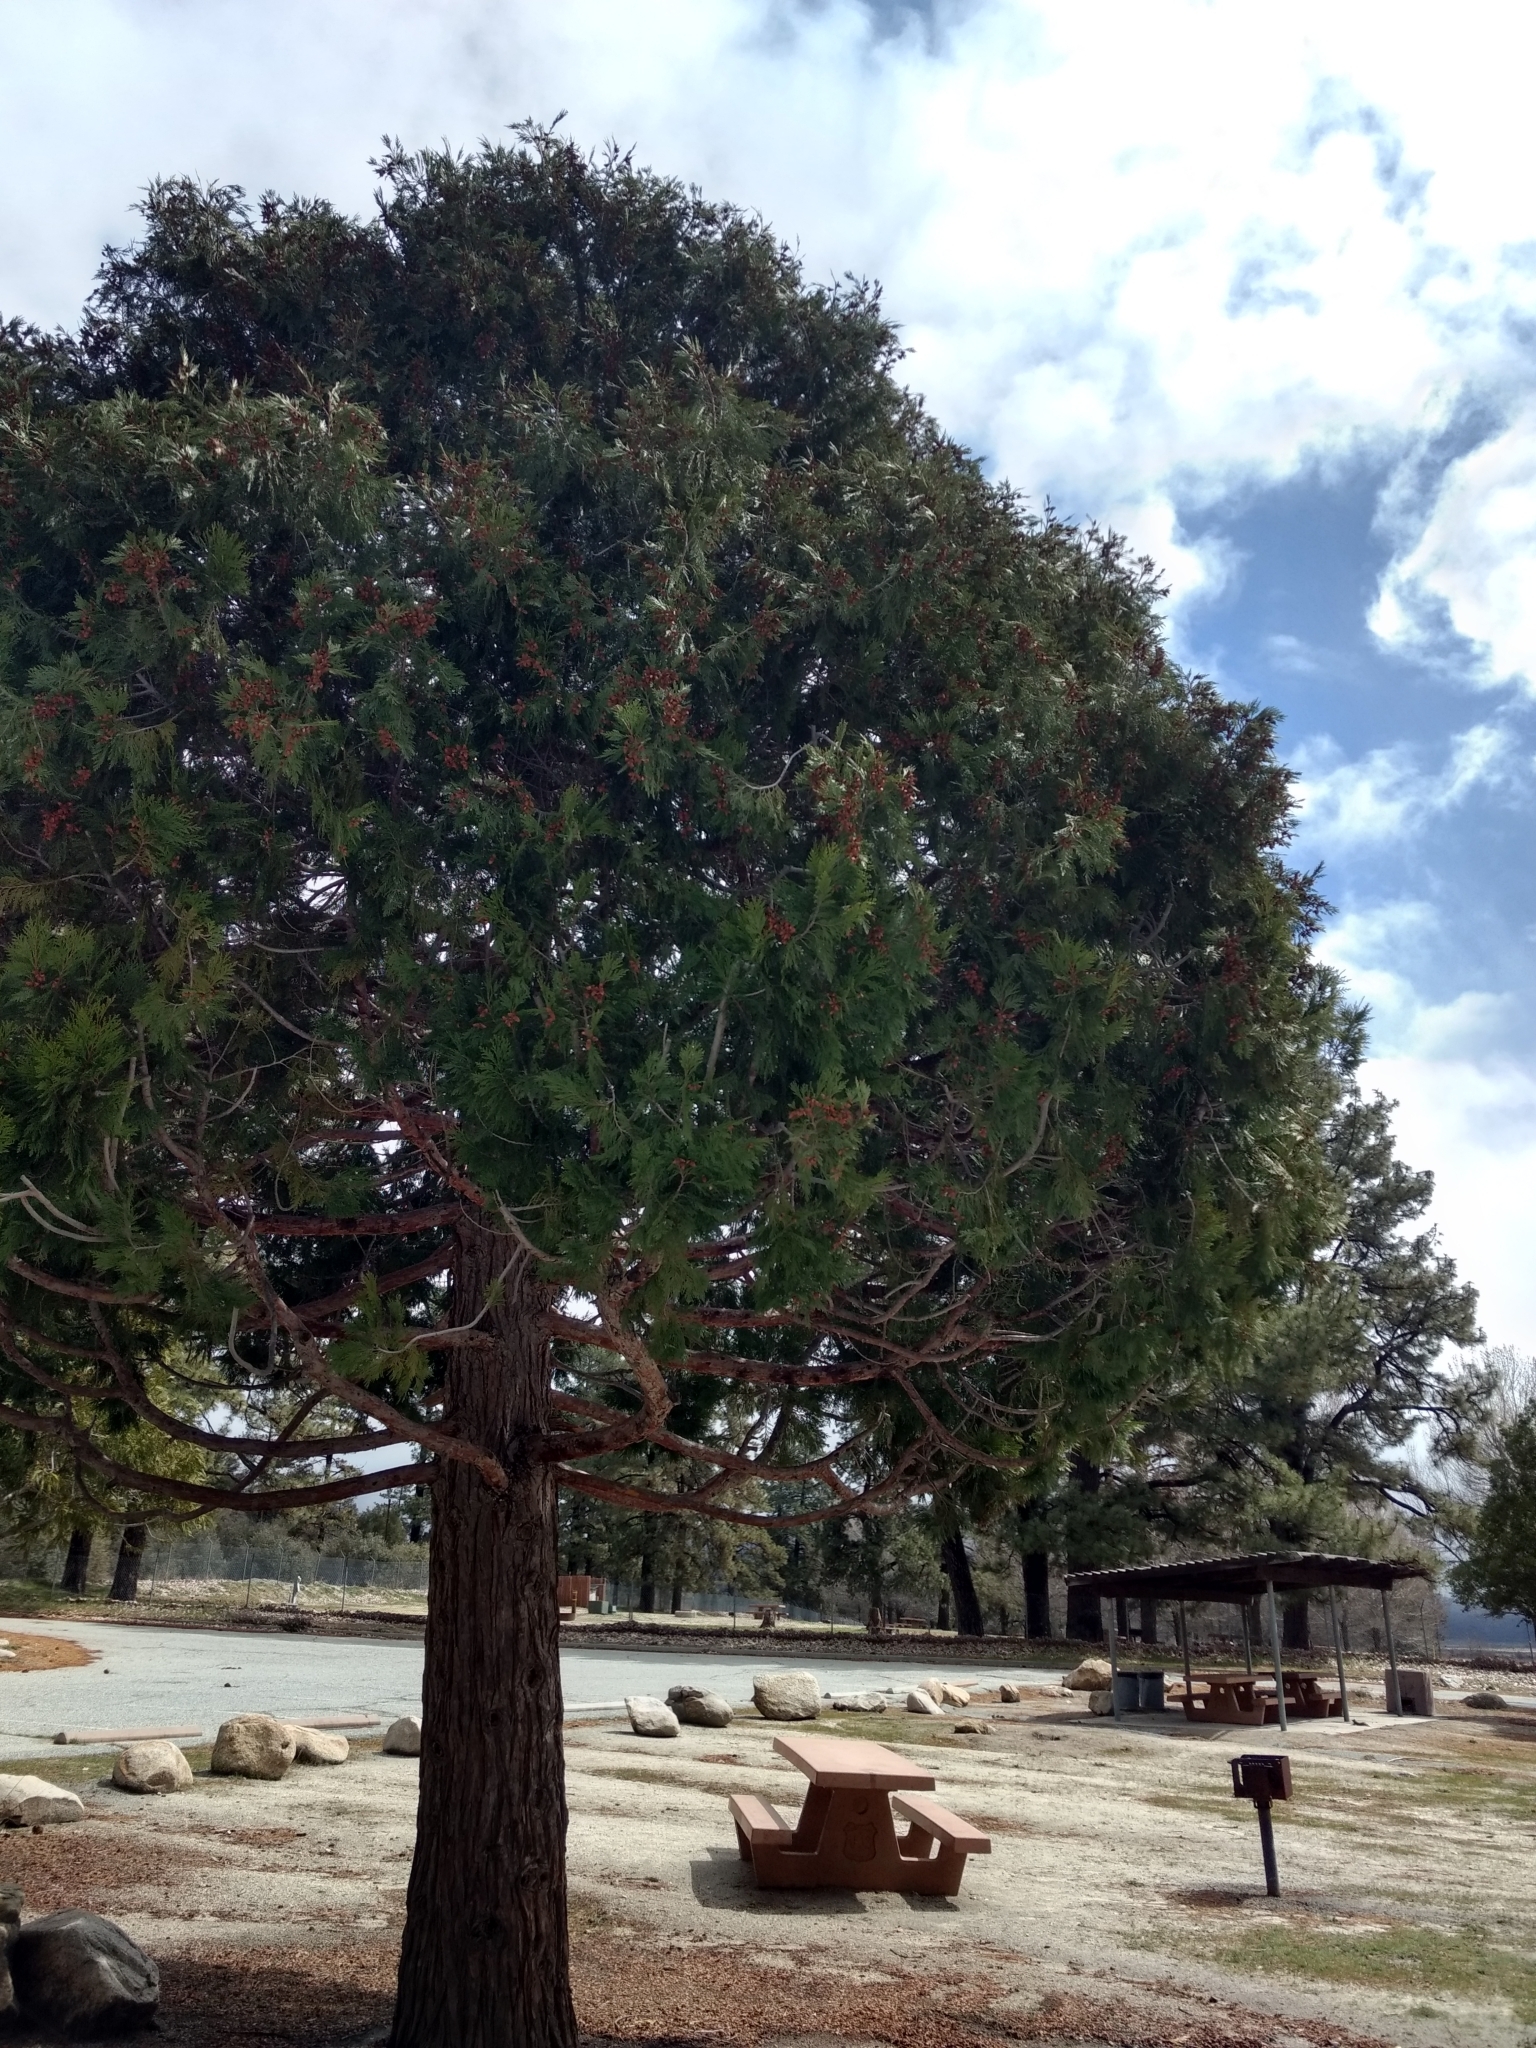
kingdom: Plantae
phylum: Tracheophyta
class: Pinopsida
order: Pinales
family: Cupressaceae
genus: Calocedrus
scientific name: Calocedrus decurrens
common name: Californian incense-cedar
